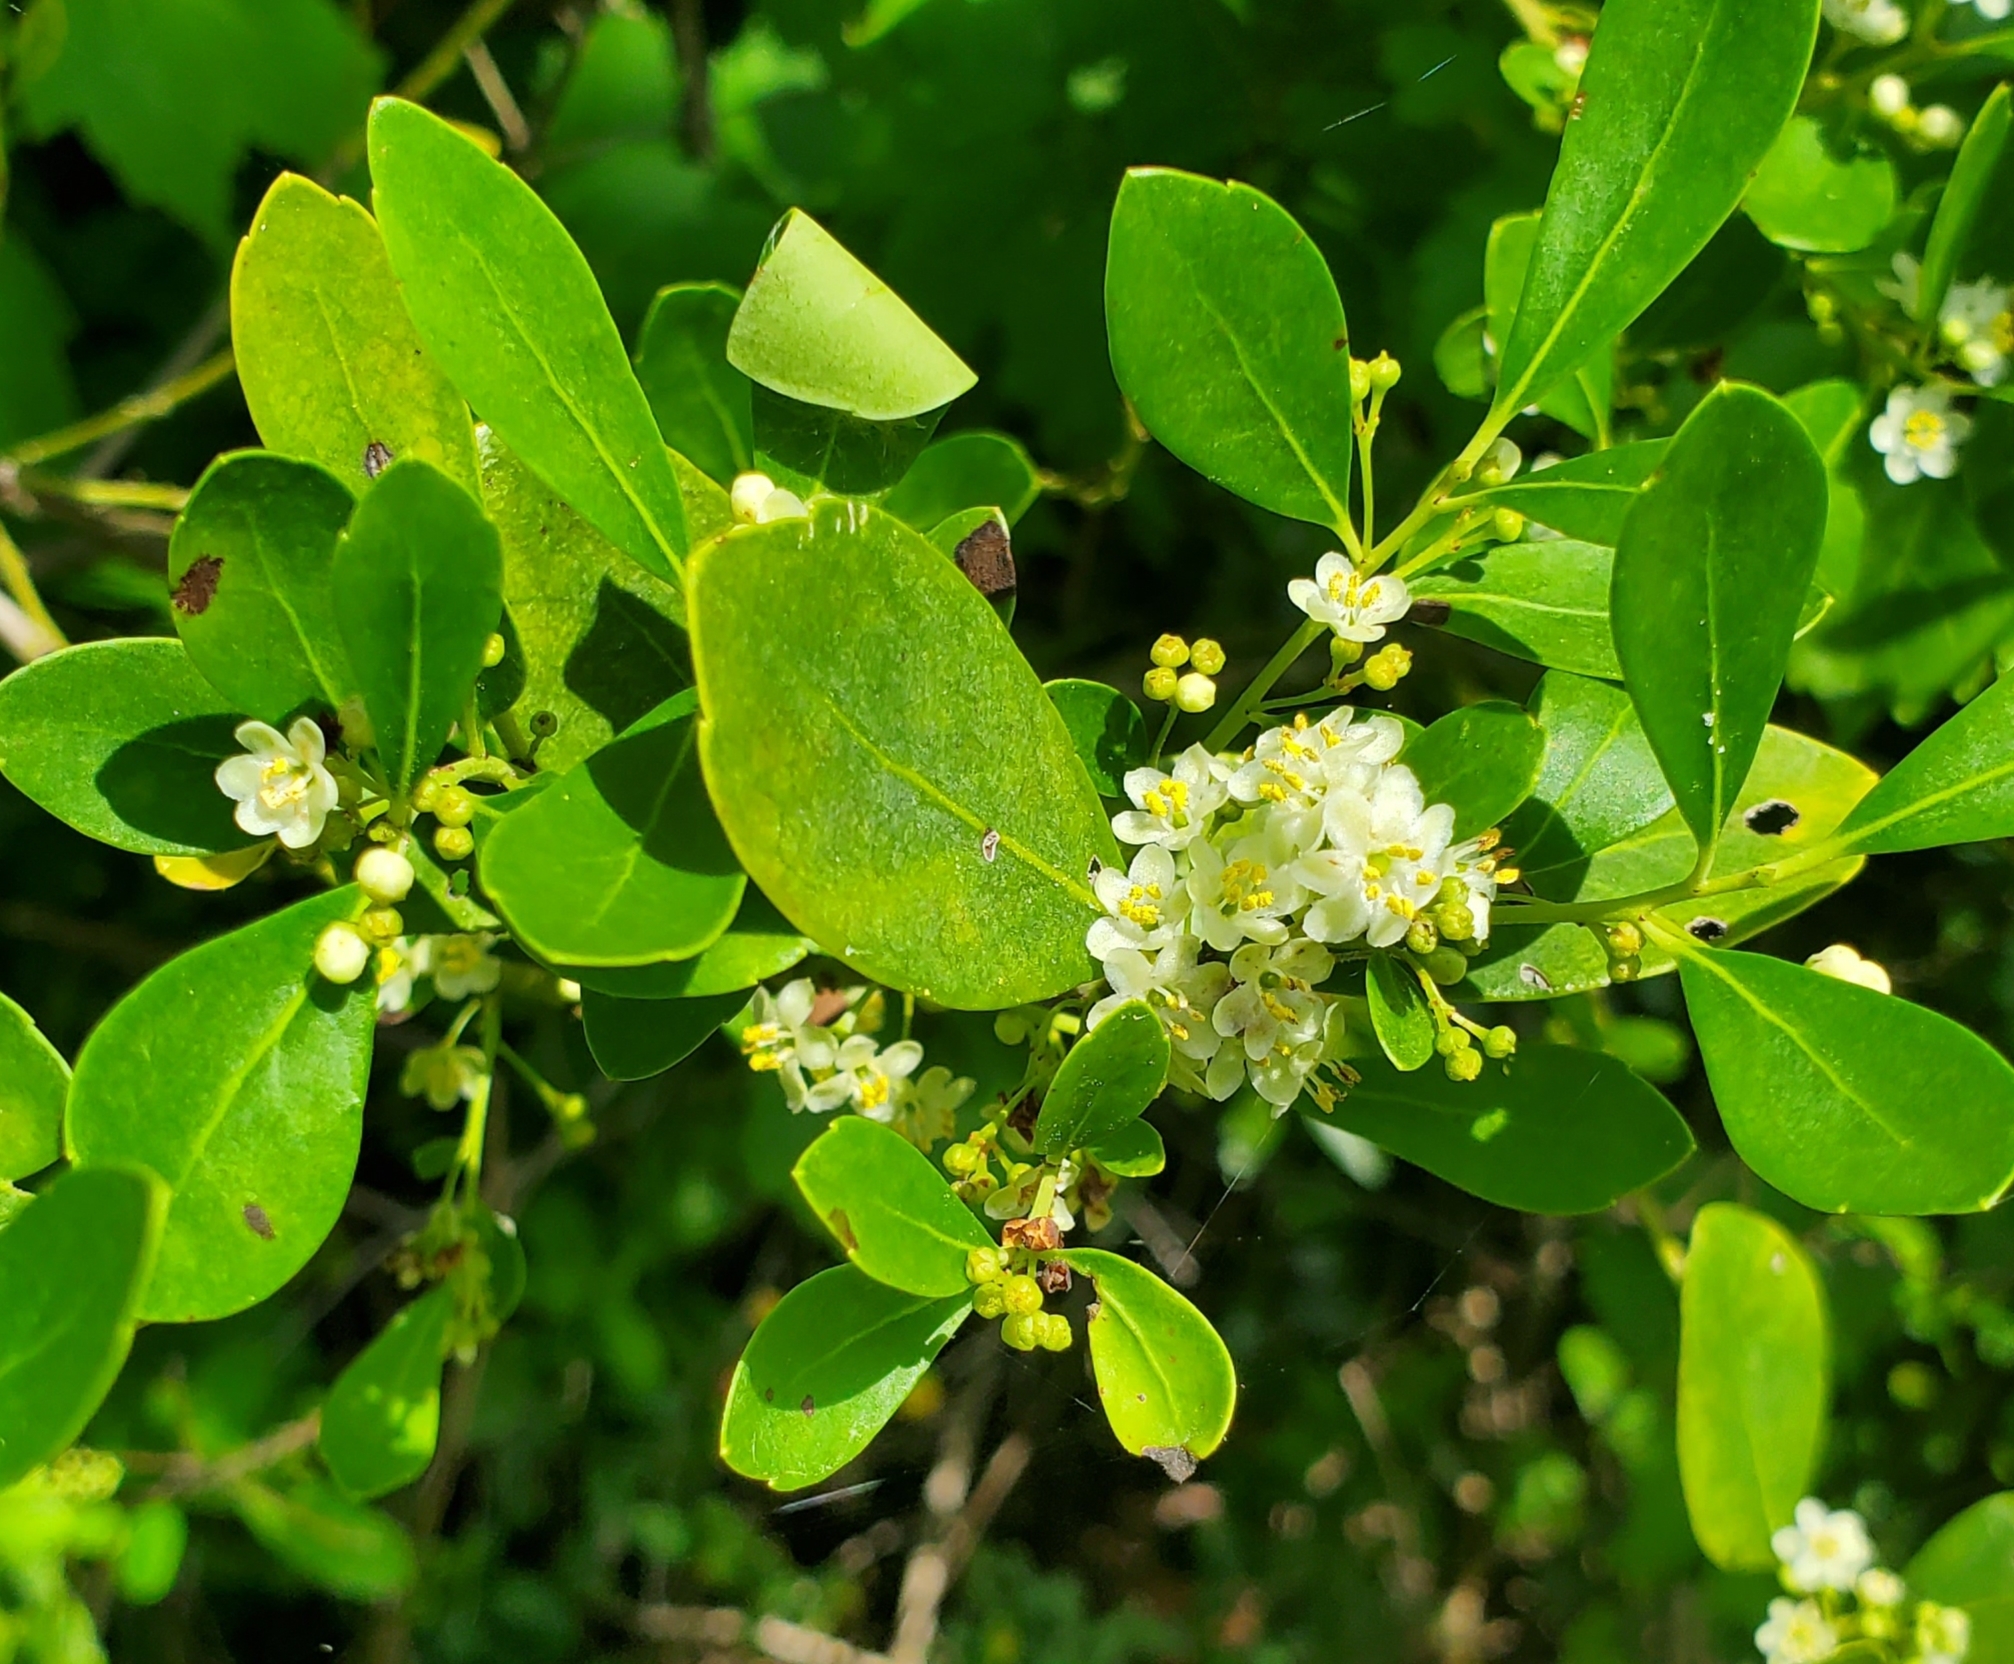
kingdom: Plantae
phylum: Tracheophyta
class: Magnoliopsida
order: Aquifoliales
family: Aquifoliaceae
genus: Ilex
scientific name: Ilex glabra
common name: Bitter gallberry
